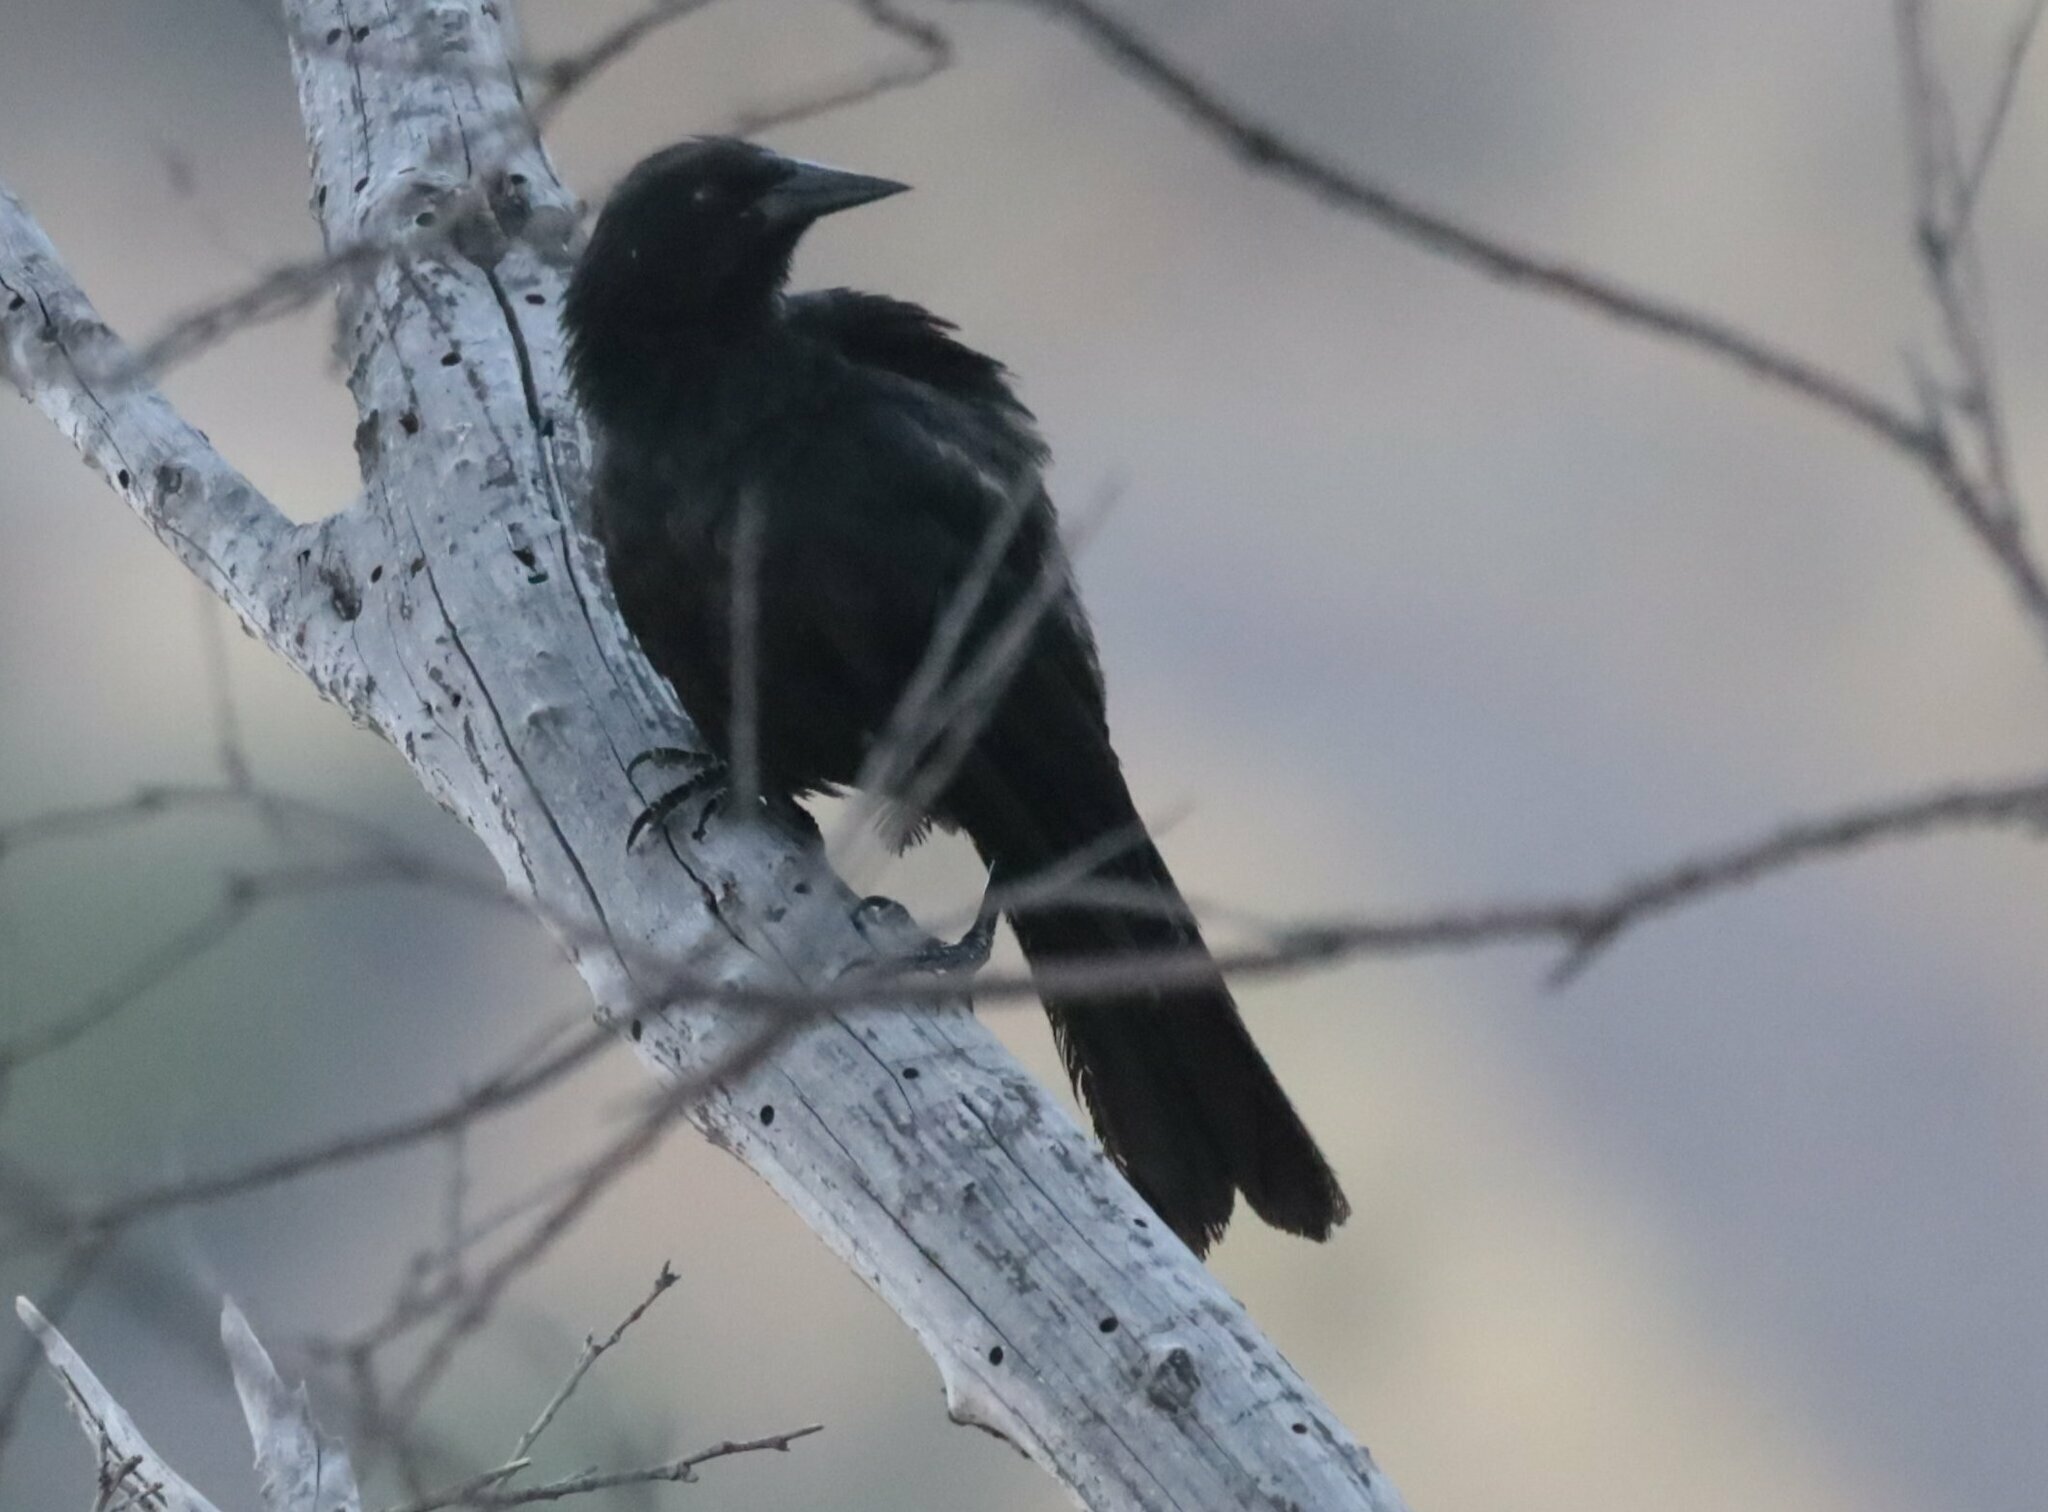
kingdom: Animalia
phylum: Chordata
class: Aves
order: Passeriformes
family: Icteridae
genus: Curaeus
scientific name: Curaeus curaeus
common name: Austral blackbird
